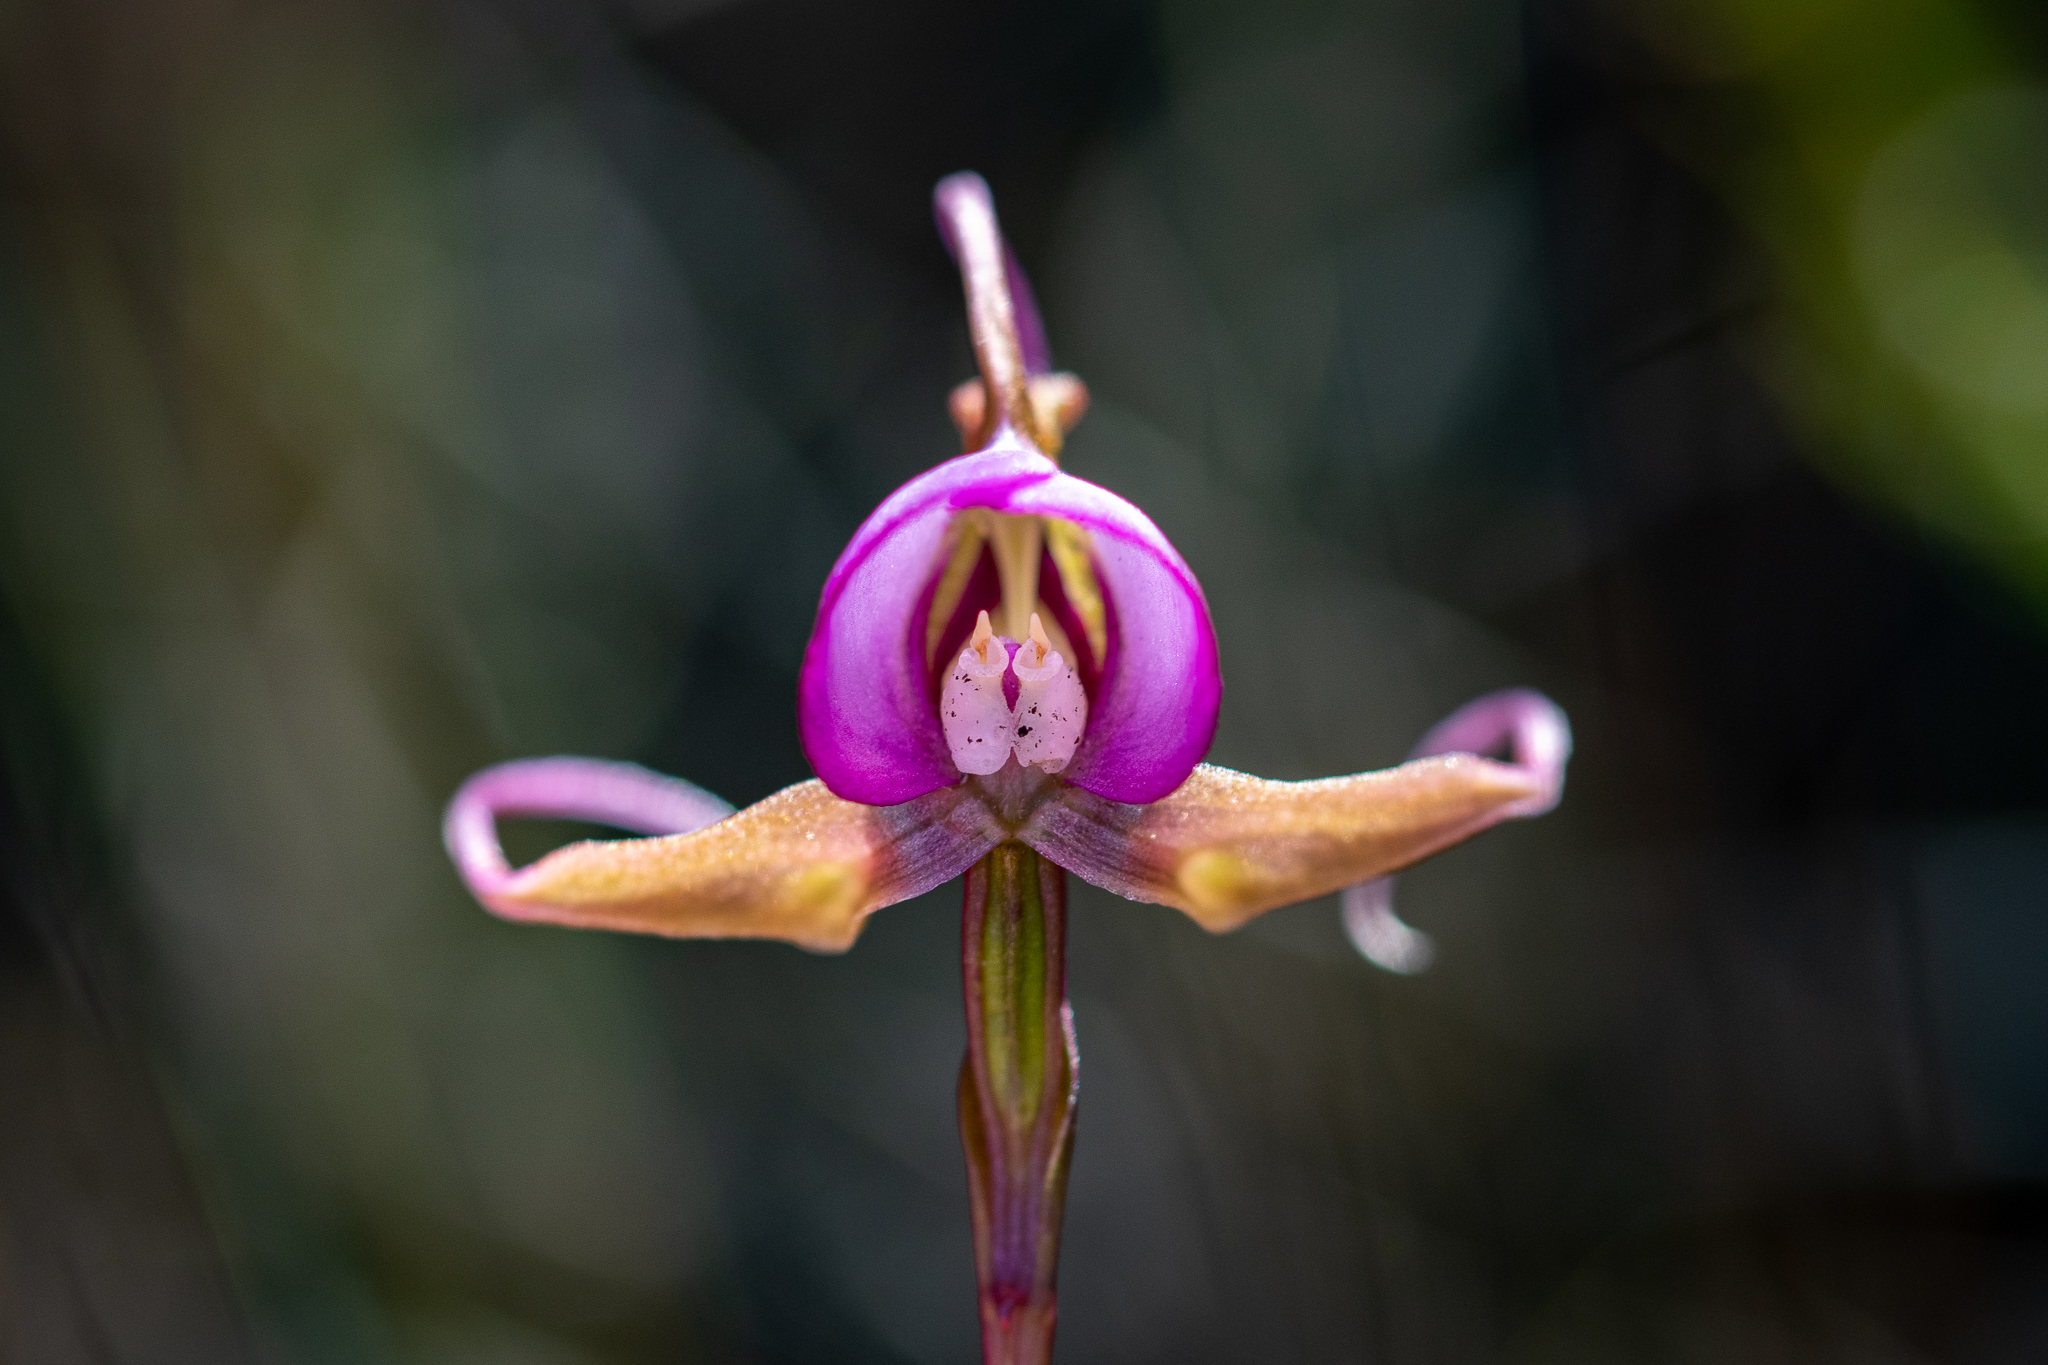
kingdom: Plantae
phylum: Tracheophyta
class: Liliopsida
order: Asparagales
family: Orchidaceae
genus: Disperis
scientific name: Disperis capensis
